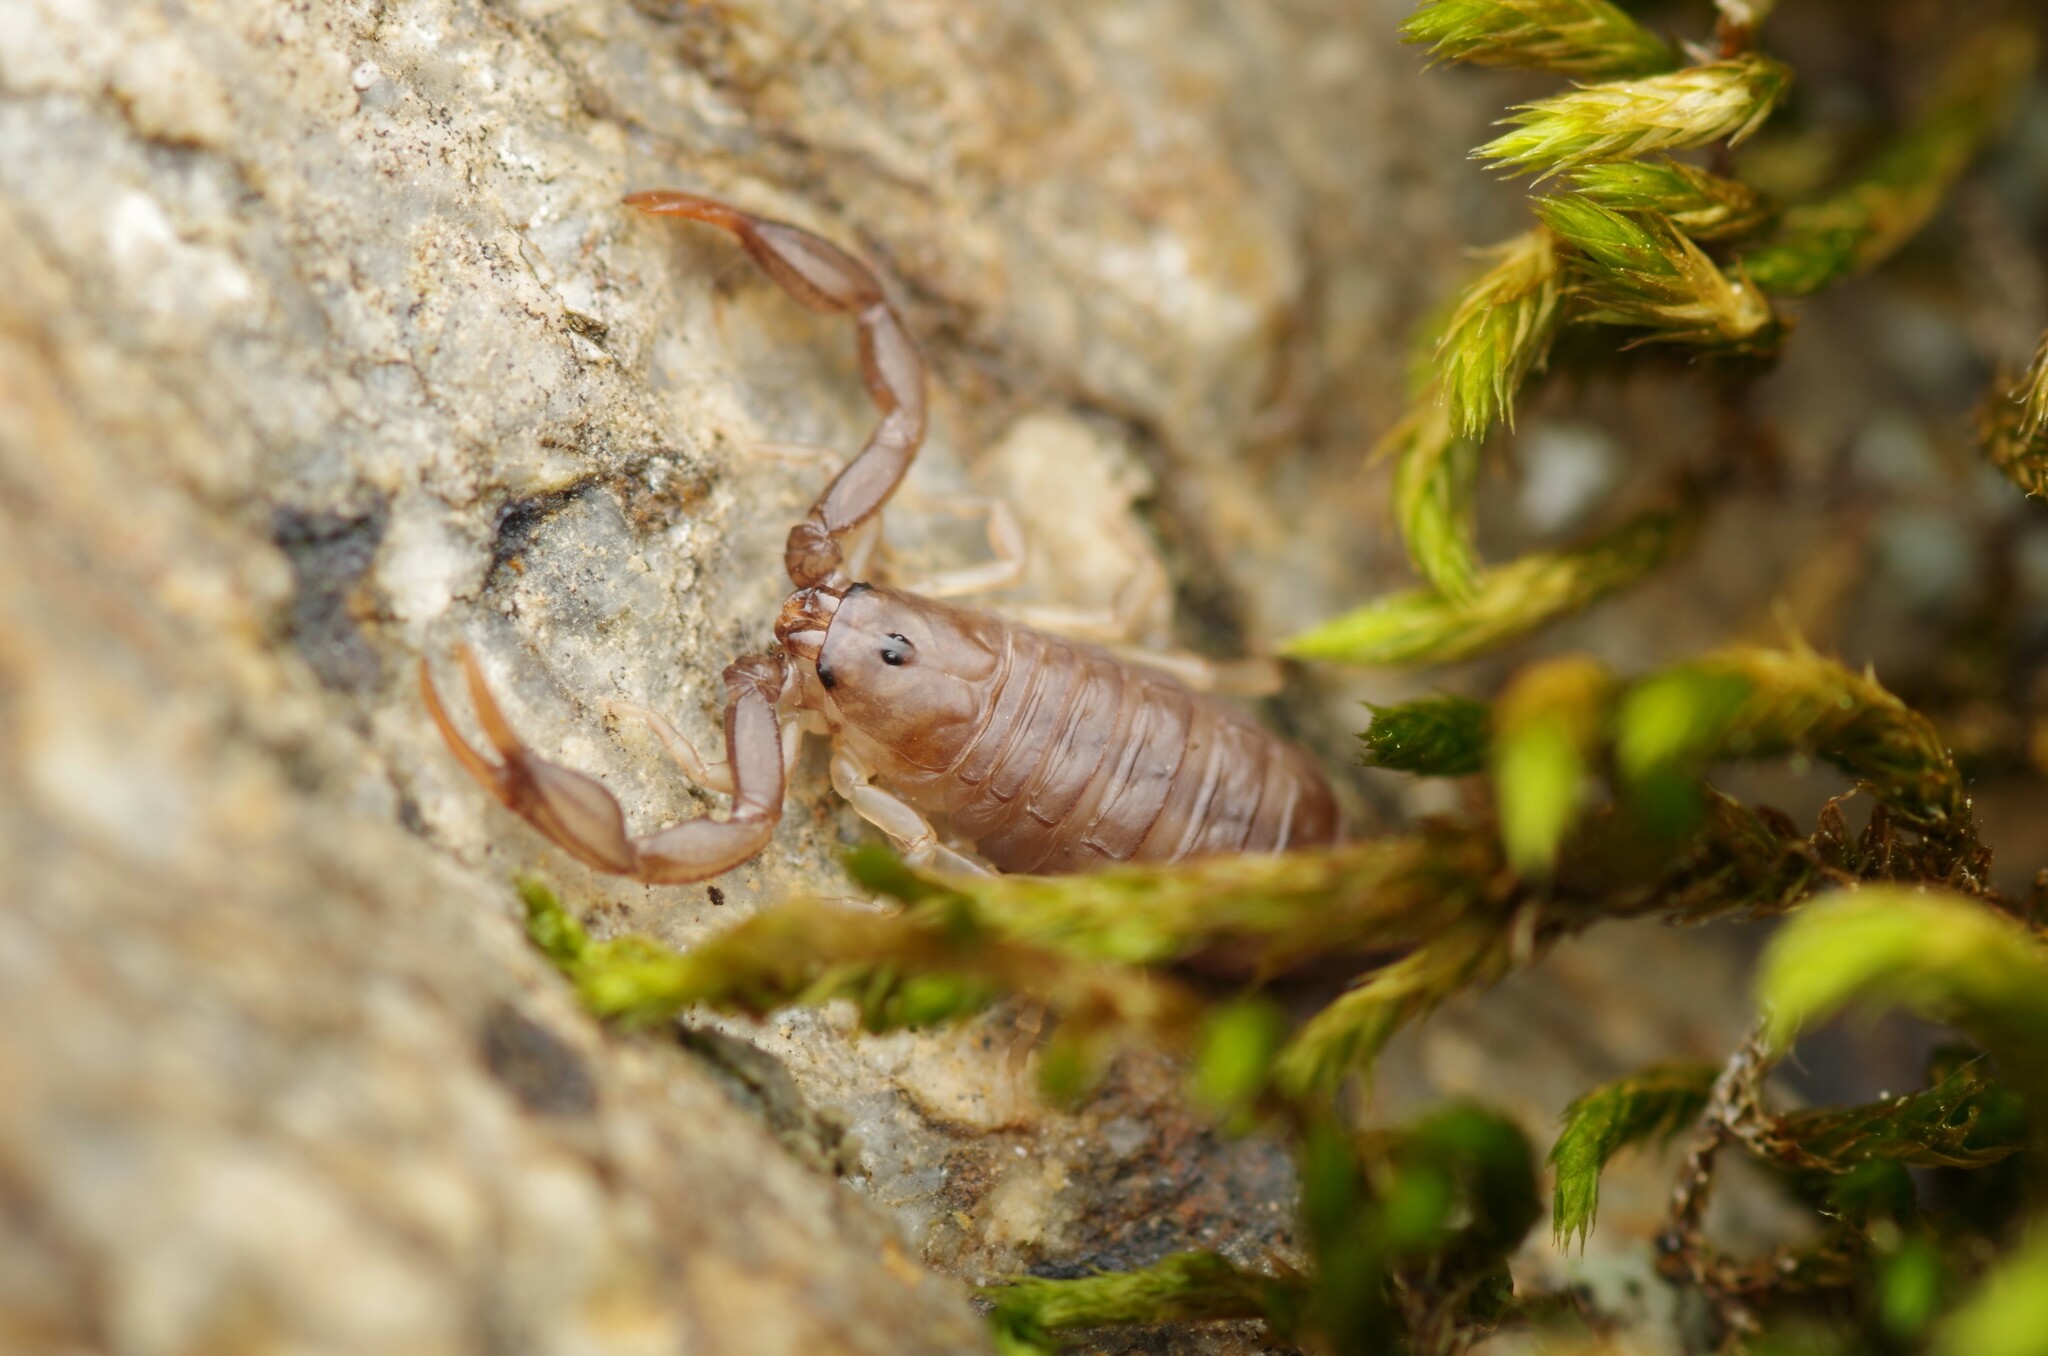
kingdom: Animalia
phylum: Arthropoda
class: Arachnida
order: Scorpiones
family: Euscorpiidae
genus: Euscorpius
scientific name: Euscorpius flavicaudis
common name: European yellow-tailed scorpion
